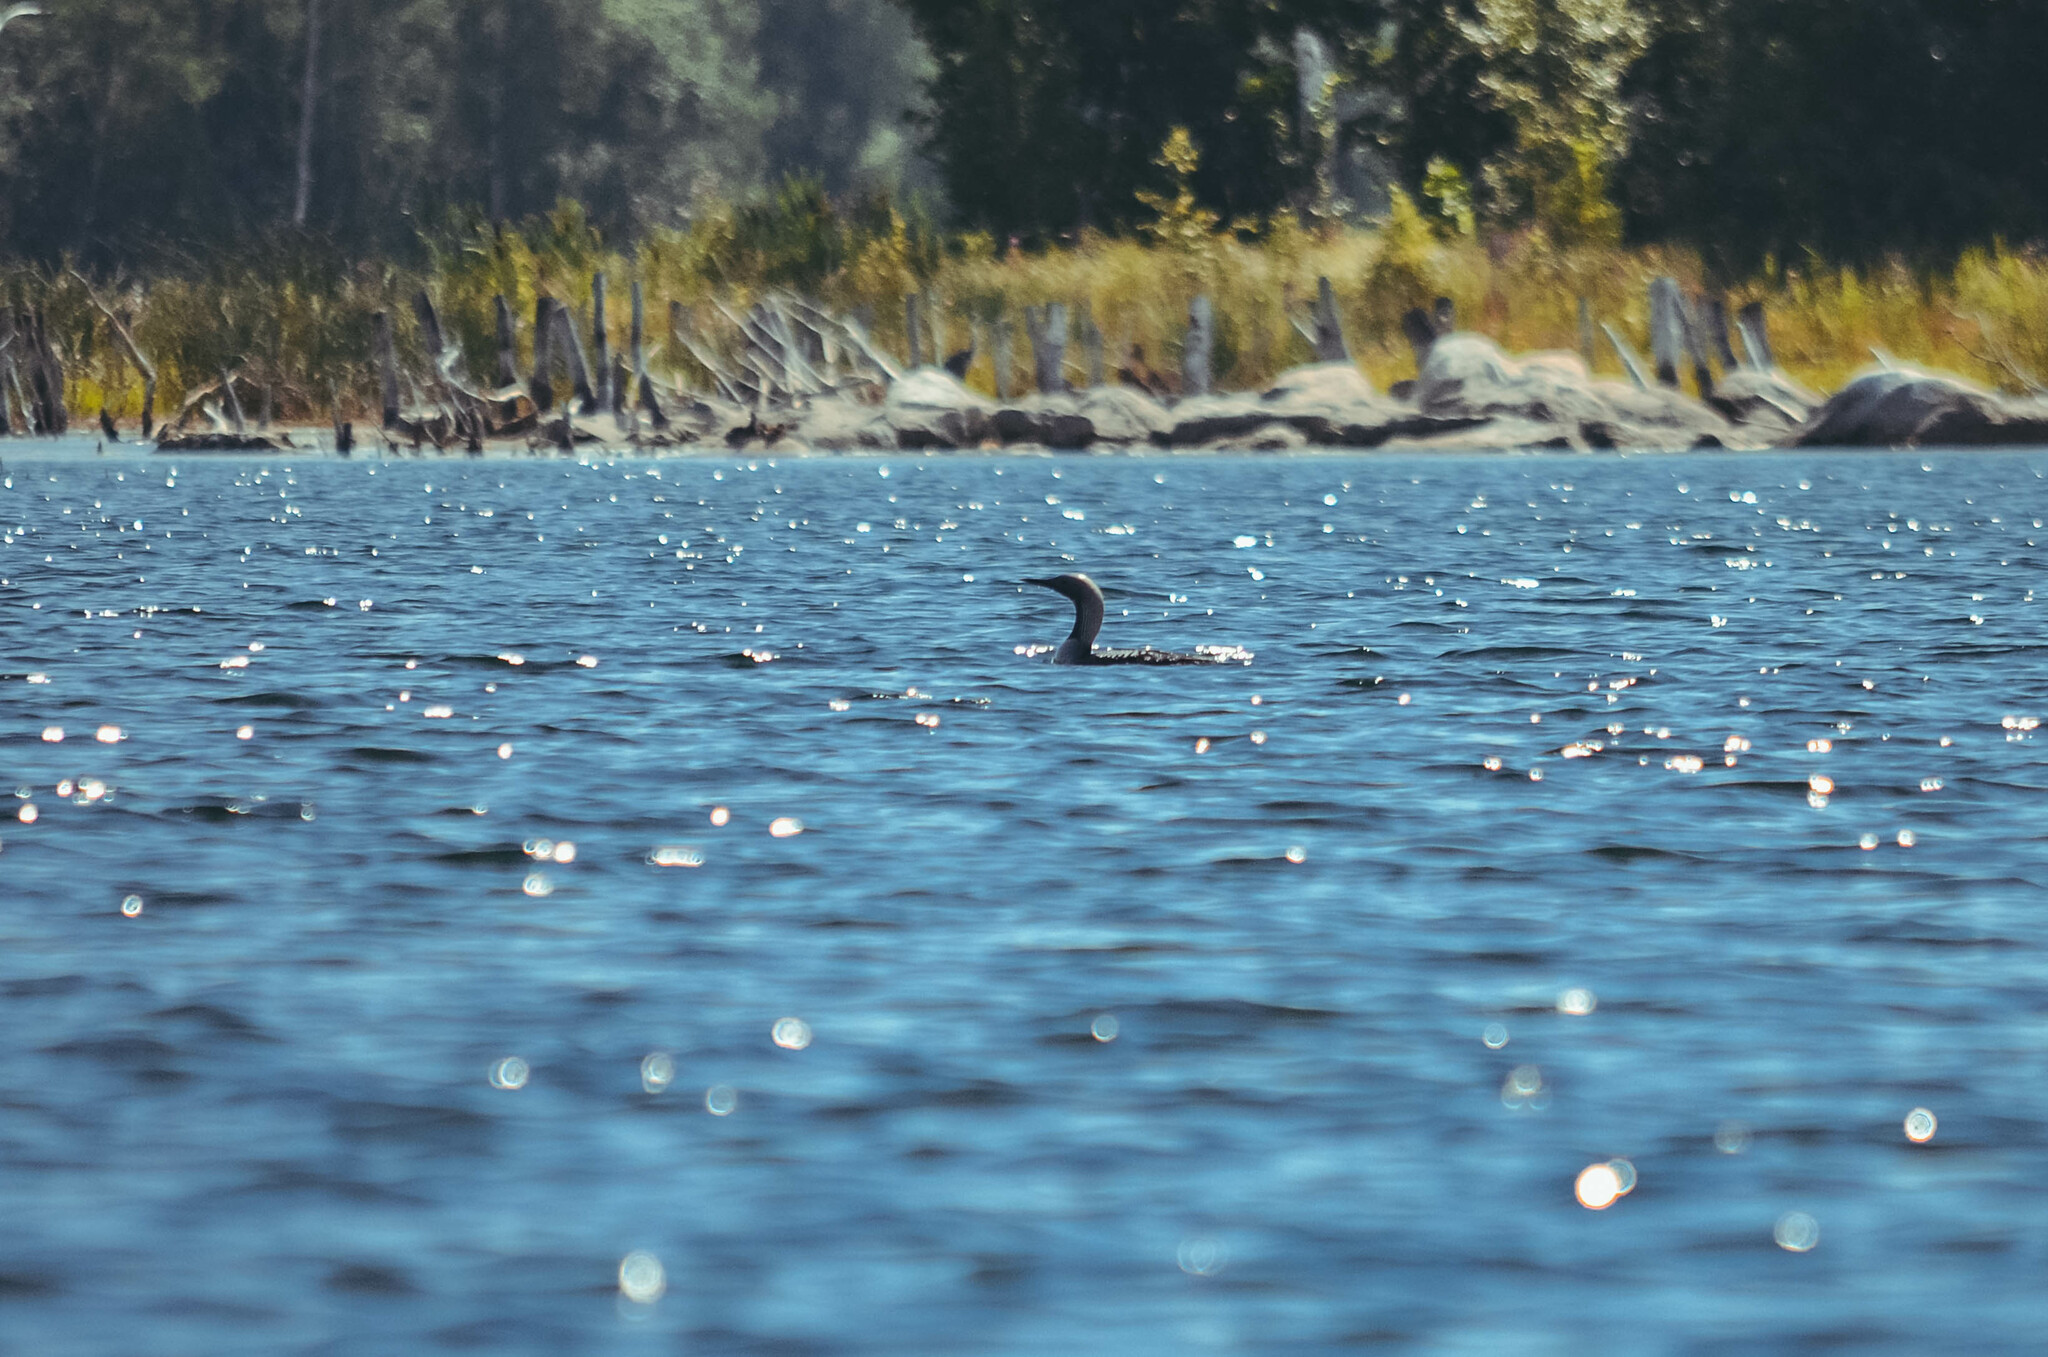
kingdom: Animalia
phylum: Chordata
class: Aves
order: Gaviiformes
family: Gaviidae
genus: Gavia
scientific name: Gavia arctica
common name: Black-throated loon
